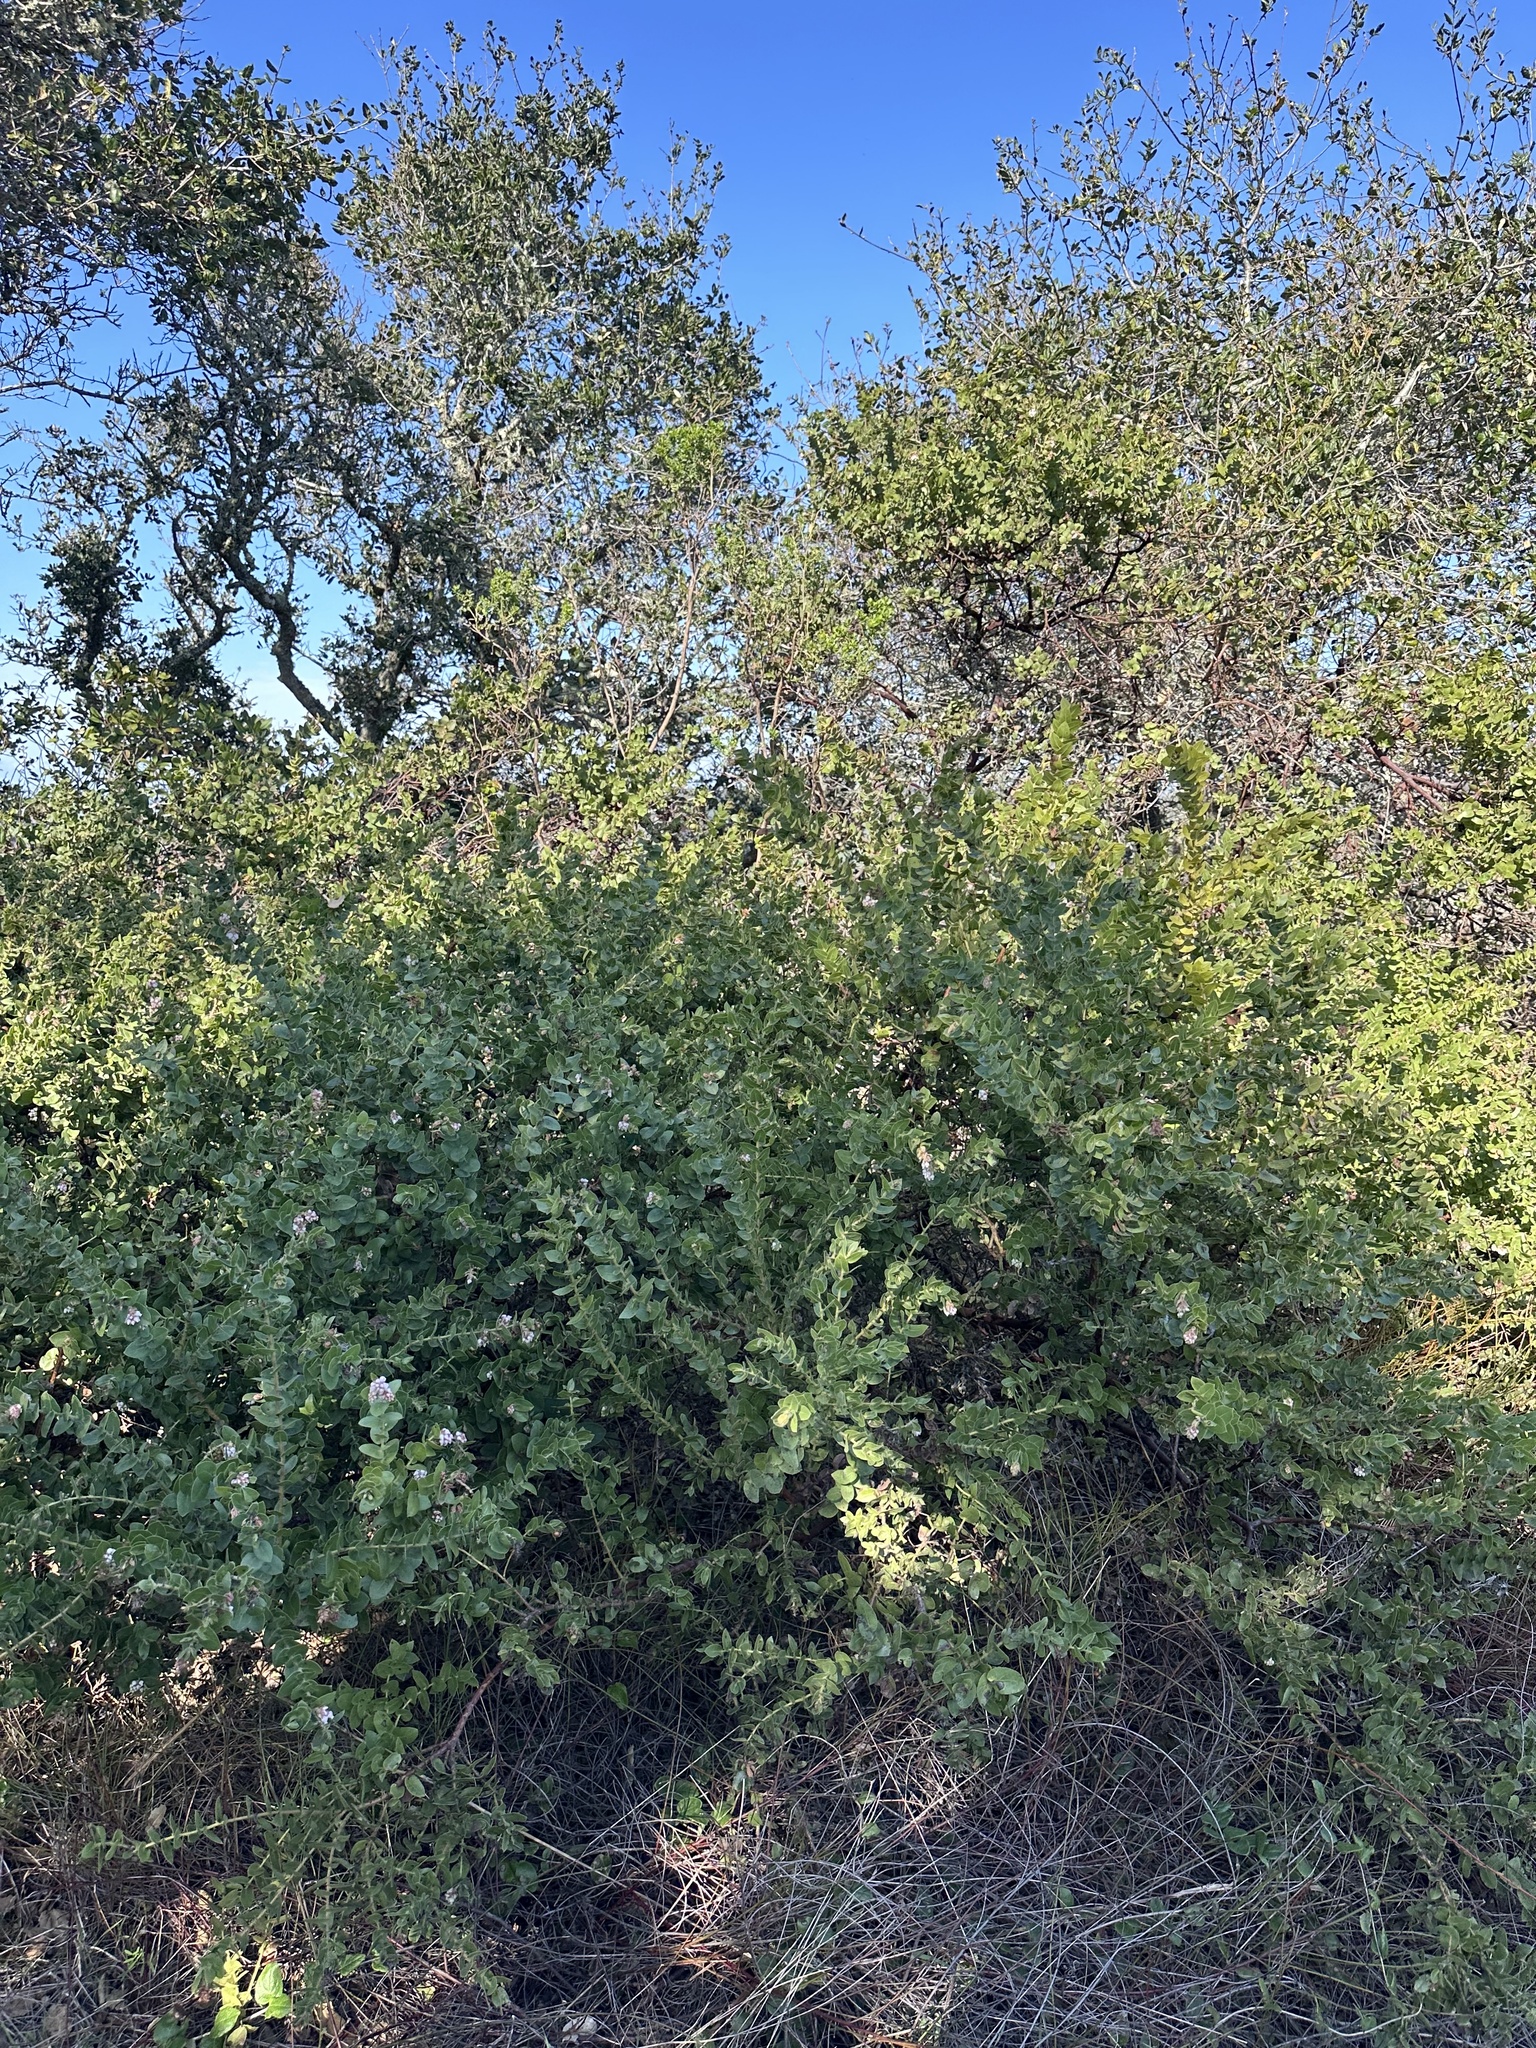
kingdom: Plantae
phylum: Tracheophyta
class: Magnoliopsida
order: Ericales
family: Ericaceae
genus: Arctostaphylos
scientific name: Arctostaphylos purissima
